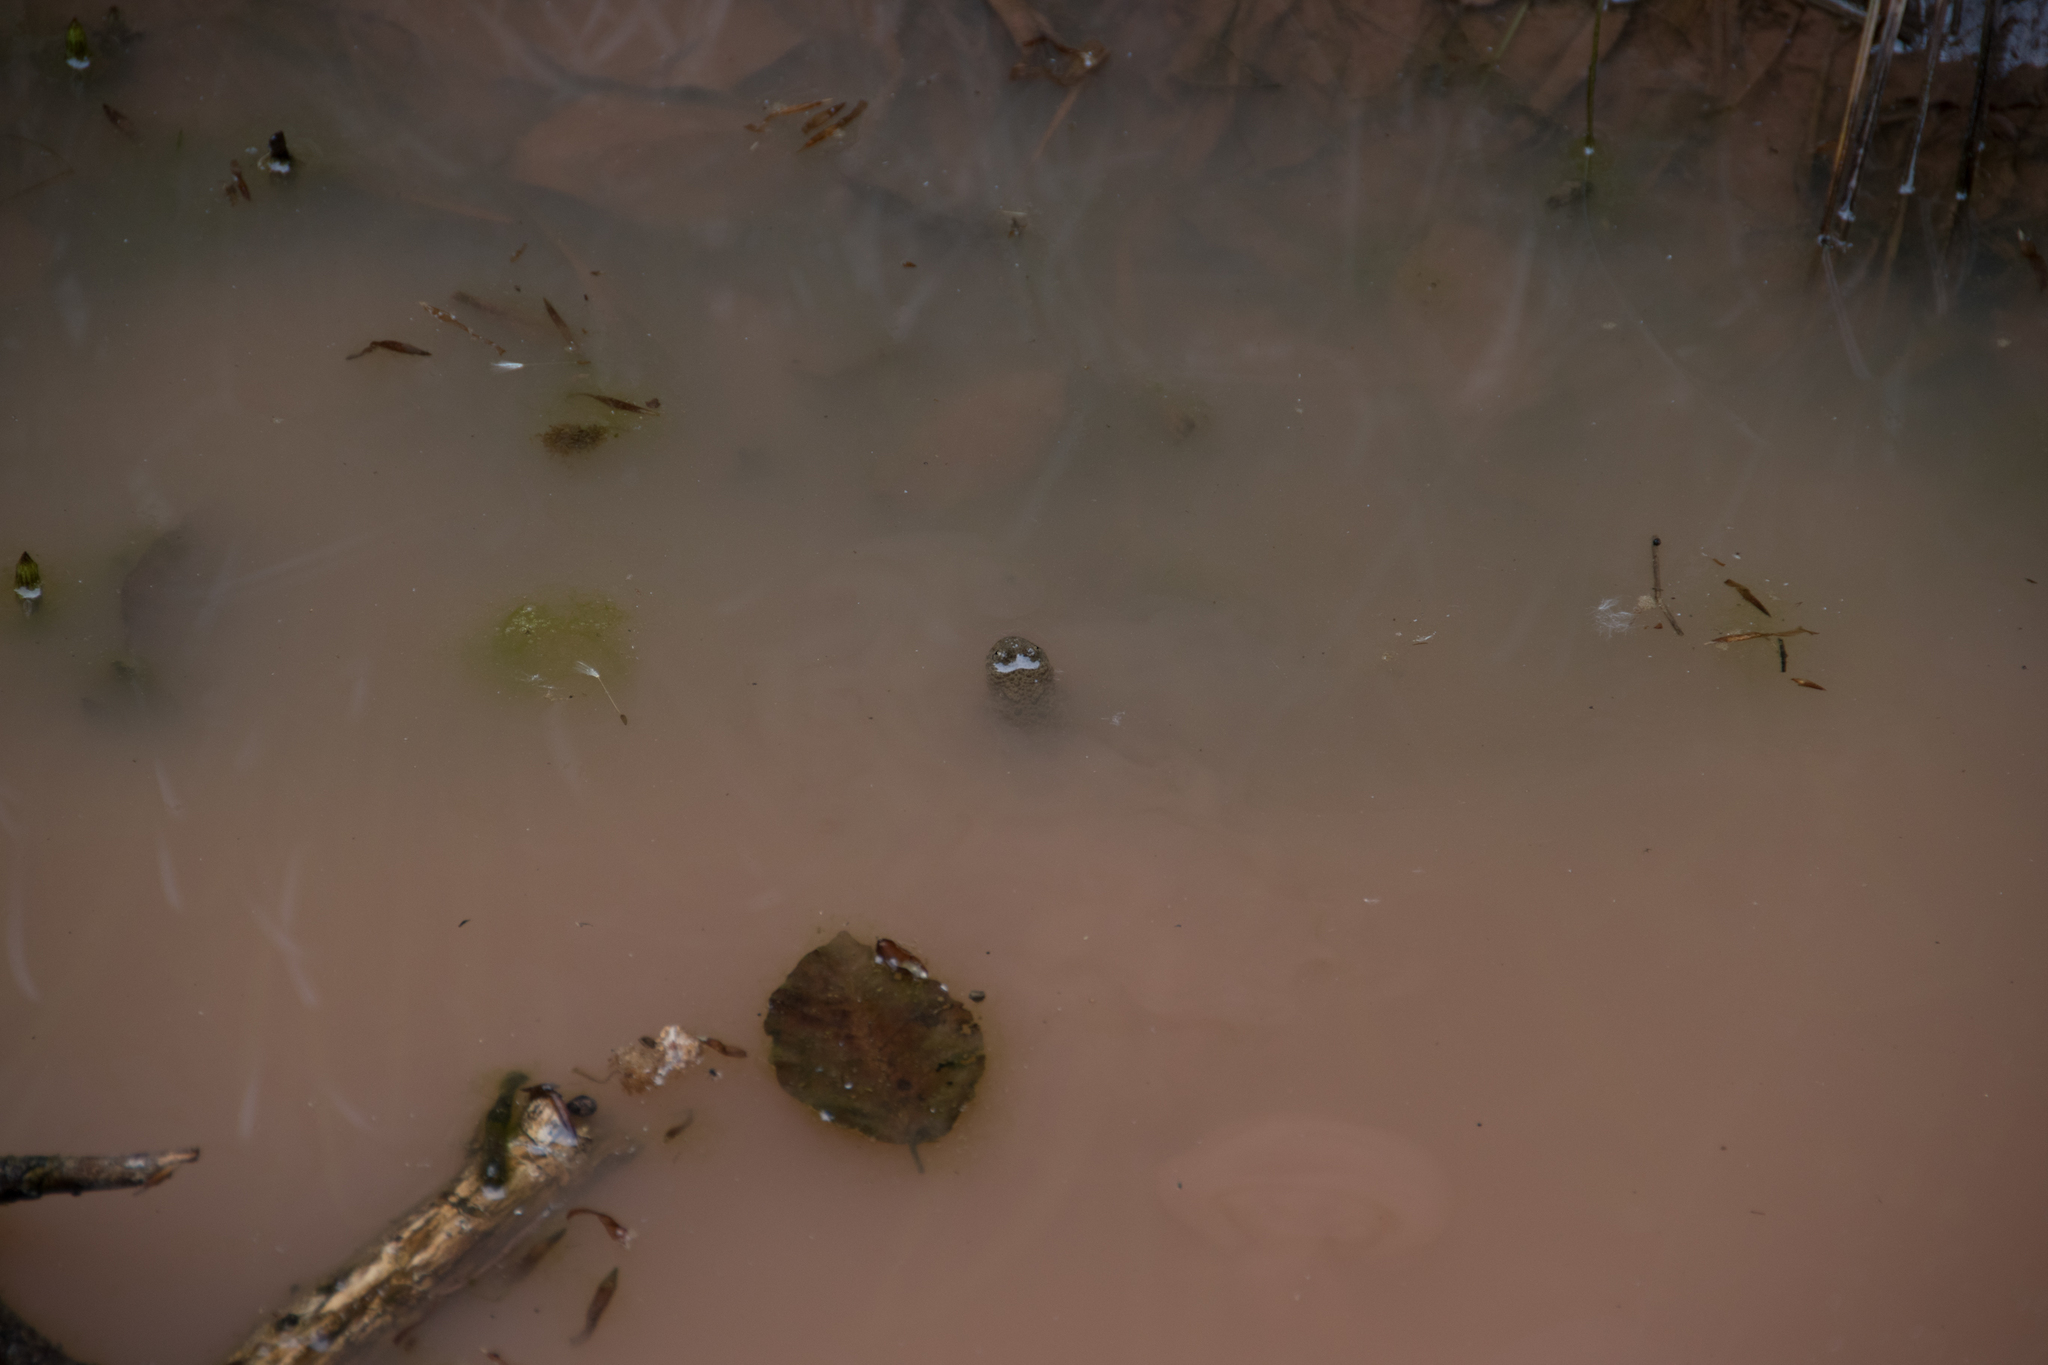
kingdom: Animalia
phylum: Chordata
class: Amphibia
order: Anura
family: Bombinatoridae
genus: Bombina
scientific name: Bombina variegata
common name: Yellow-bellied toad
